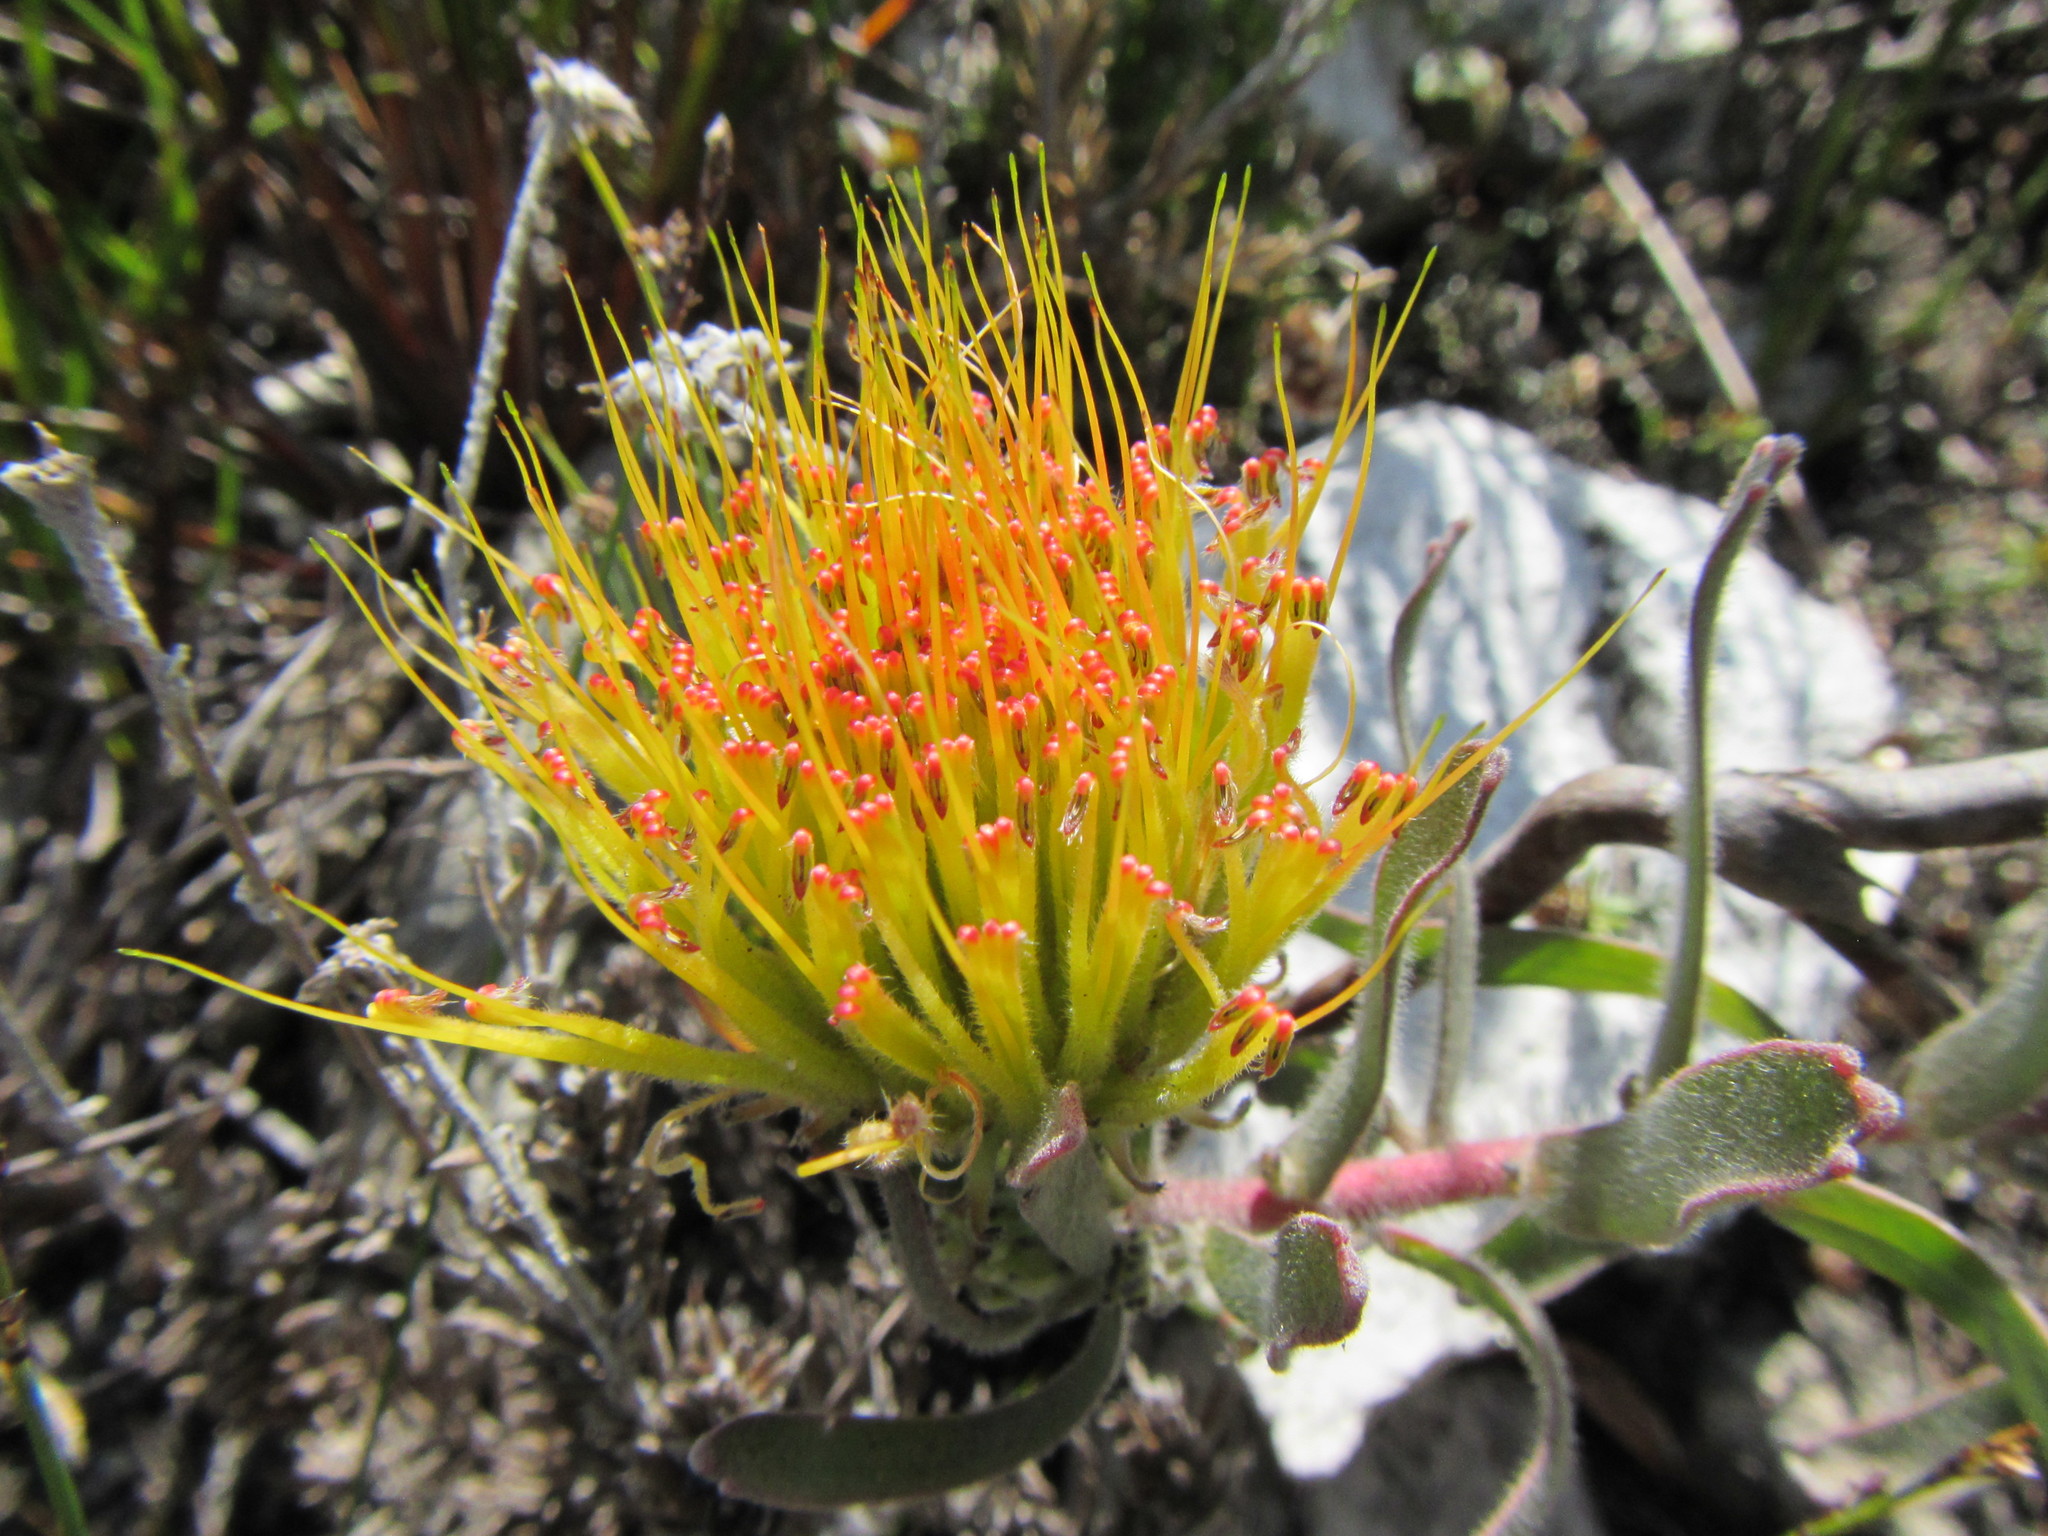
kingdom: Plantae
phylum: Tracheophyta
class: Magnoliopsida
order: Proteales
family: Proteaceae
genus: Leucospermum
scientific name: Leucospermum gracile
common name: Hermanus pincushion
